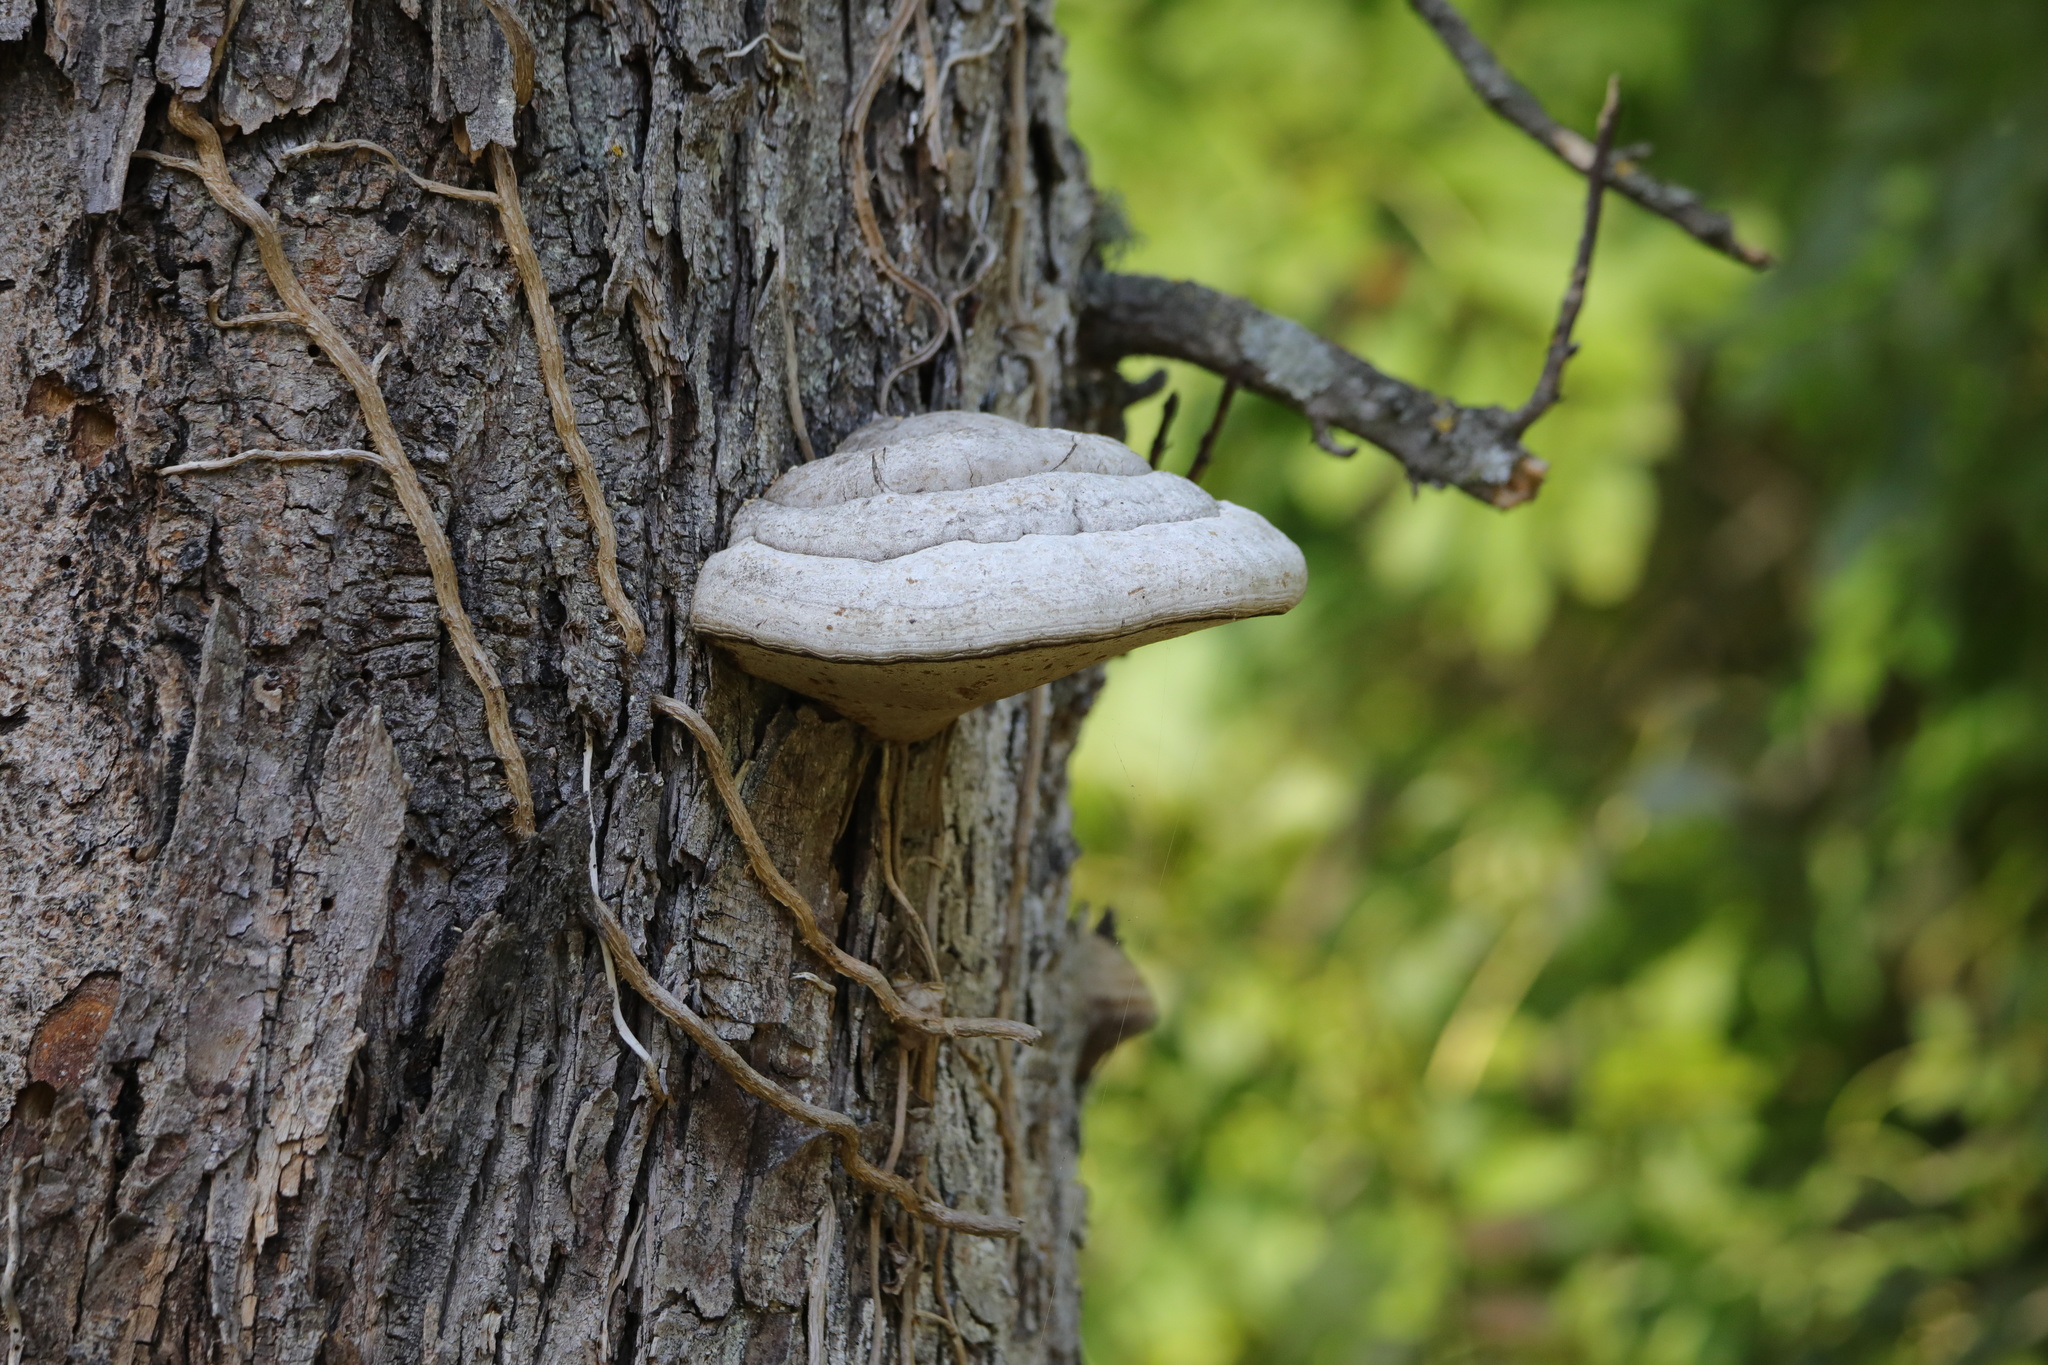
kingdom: Fungi
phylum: Basidiomycota
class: Agaricomycetes
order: Polyporales
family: Polyporaceae
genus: Fomes
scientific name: Fomes fomentarius
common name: Hoof fungus
